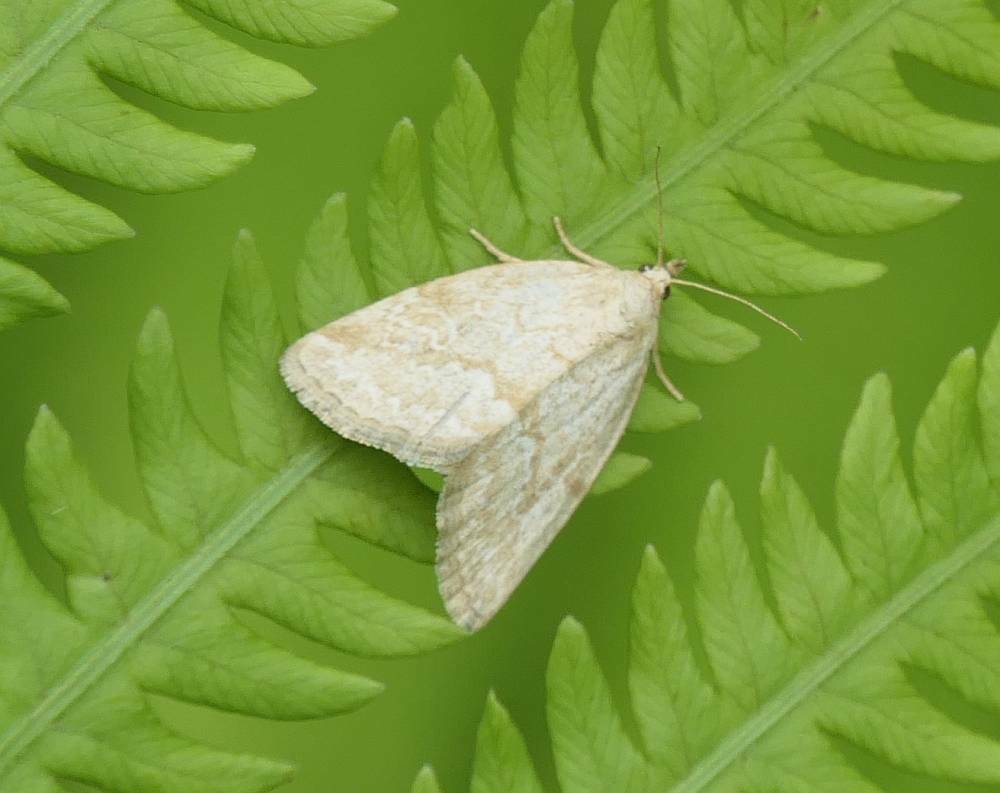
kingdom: Animalia
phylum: Arthropoda
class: Insecta
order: Lepidoptera
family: Noctuidae
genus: Protodeltote
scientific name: Protodeltote albidula
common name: Pale glyph
